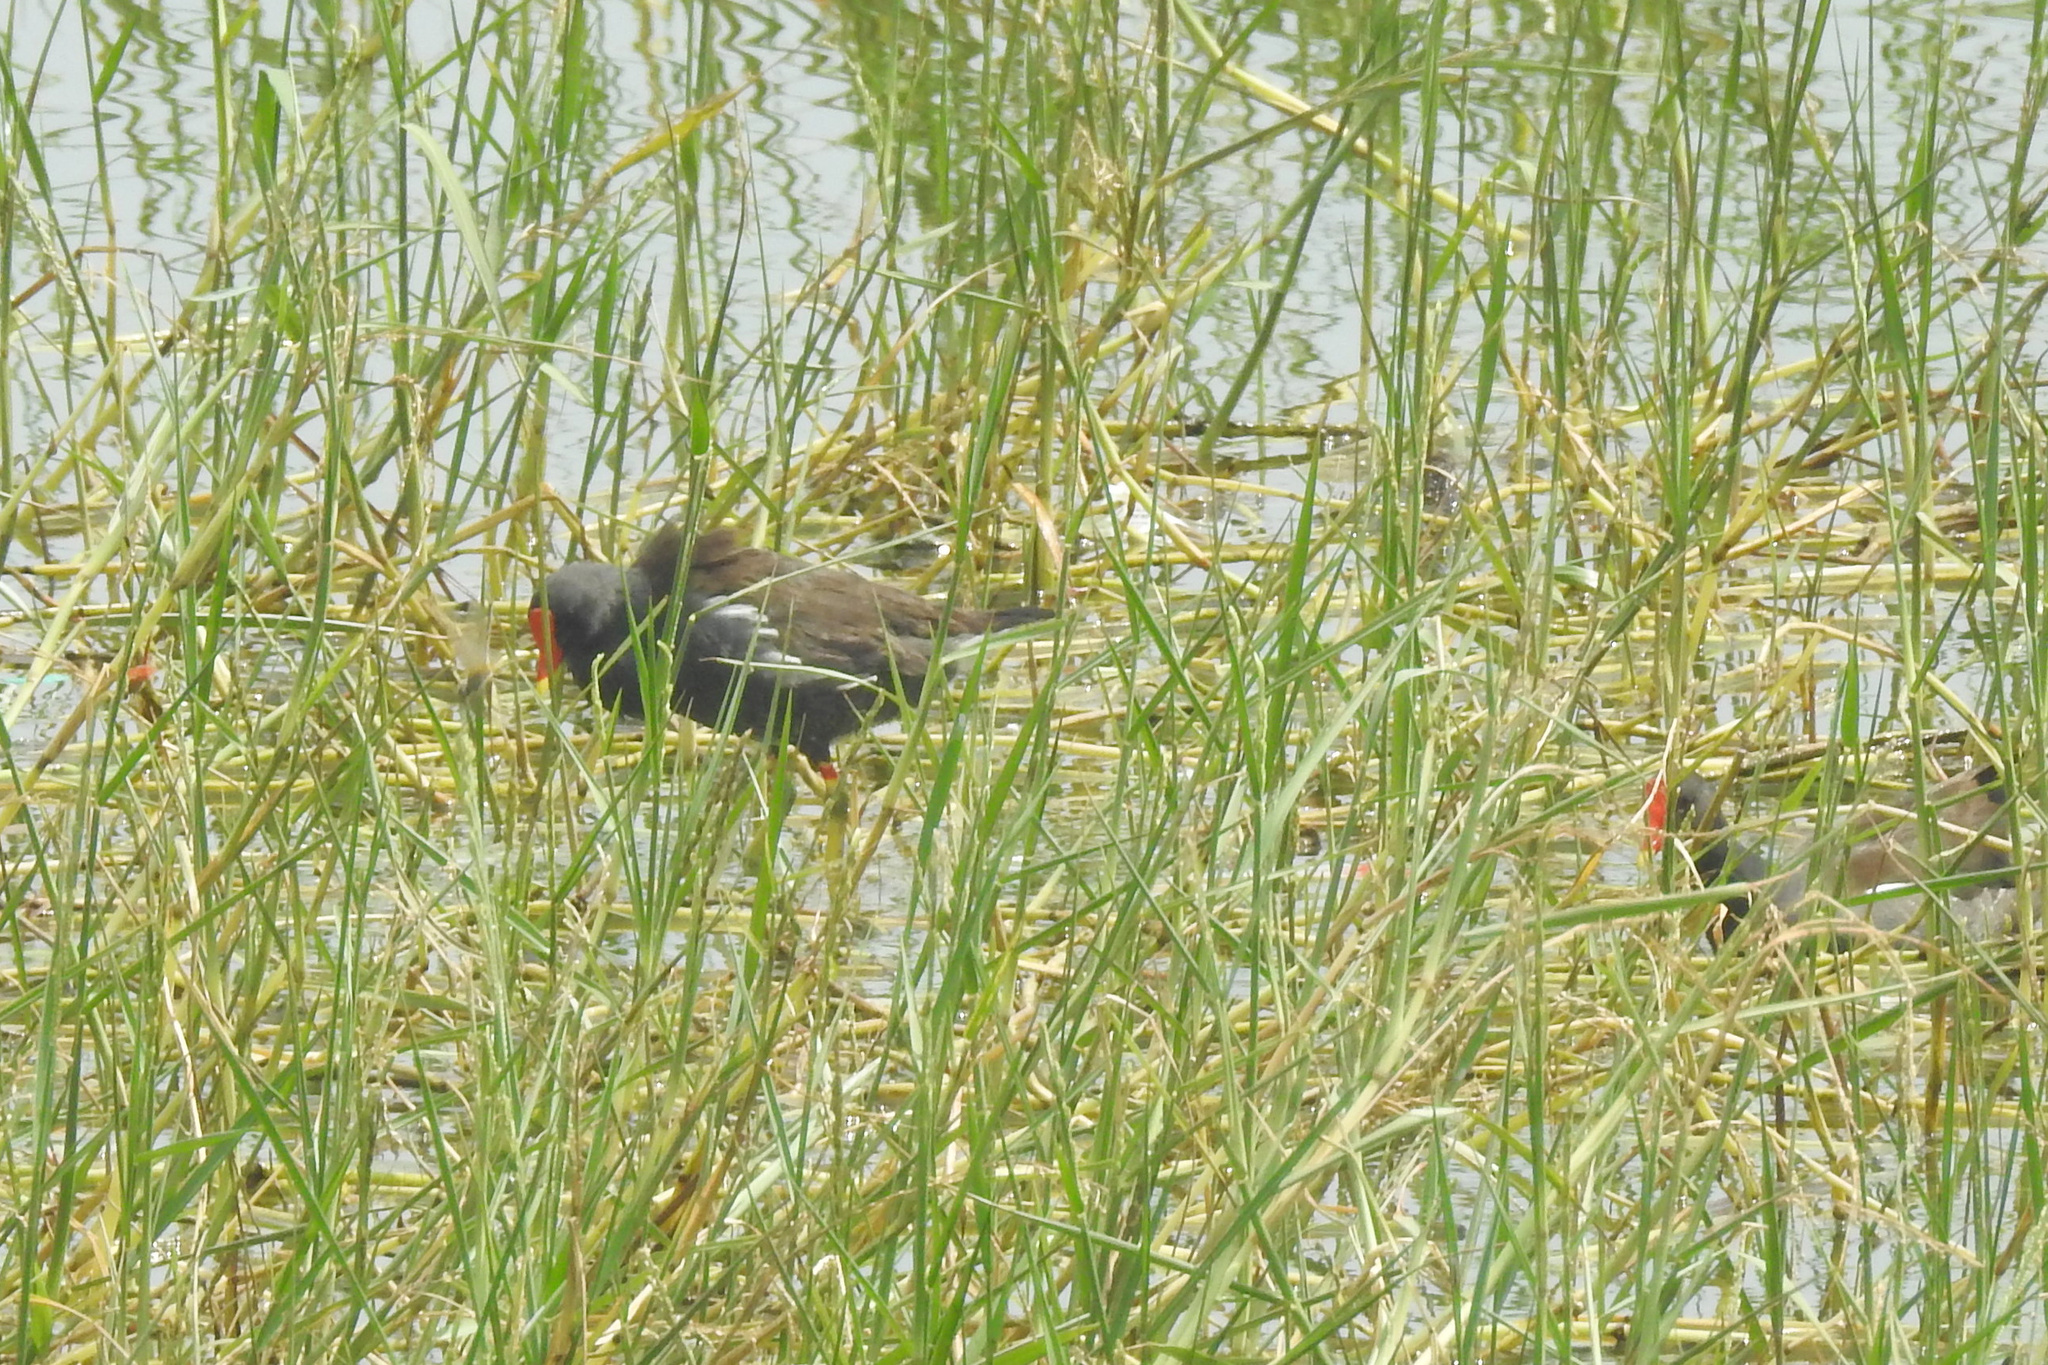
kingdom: Animalia
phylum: Chordata
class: Aves
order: Gruiformes
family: Rallidae
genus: Gallinula
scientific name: Gallinula chloropus
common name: Common moorhen
